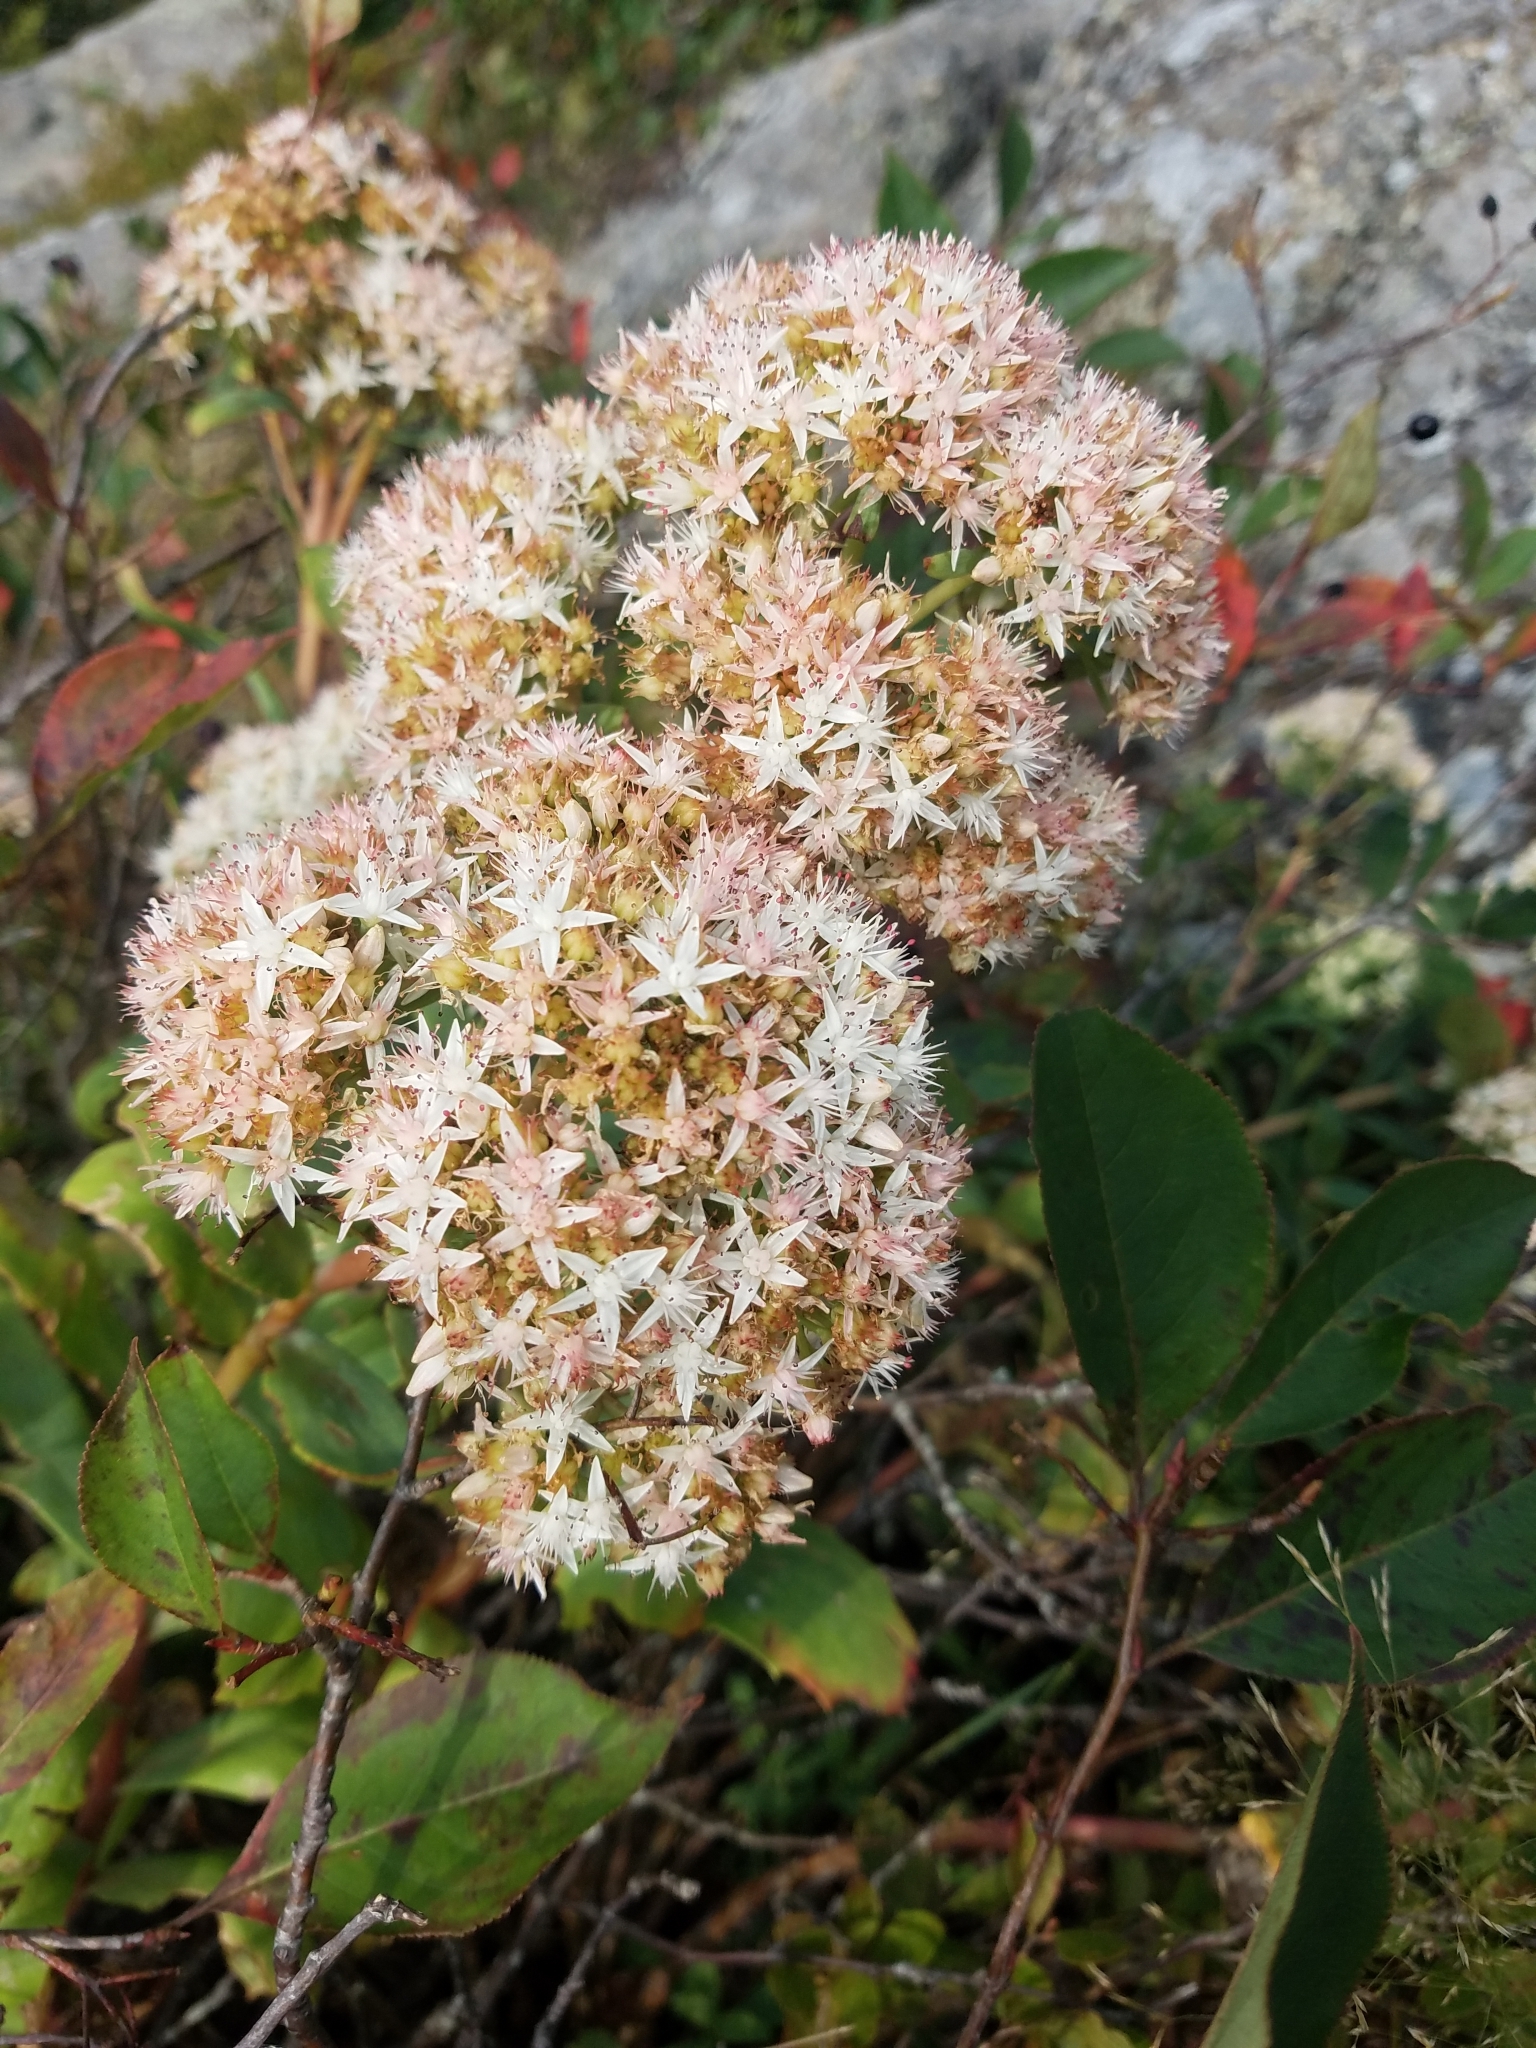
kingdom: Plantae
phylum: Tracheophyta
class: Magnoliopsida
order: Saxifragales
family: Crassulaceae
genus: Hylotelephium
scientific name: Hylotelephium telephioides
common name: Allegheny stonecrop
